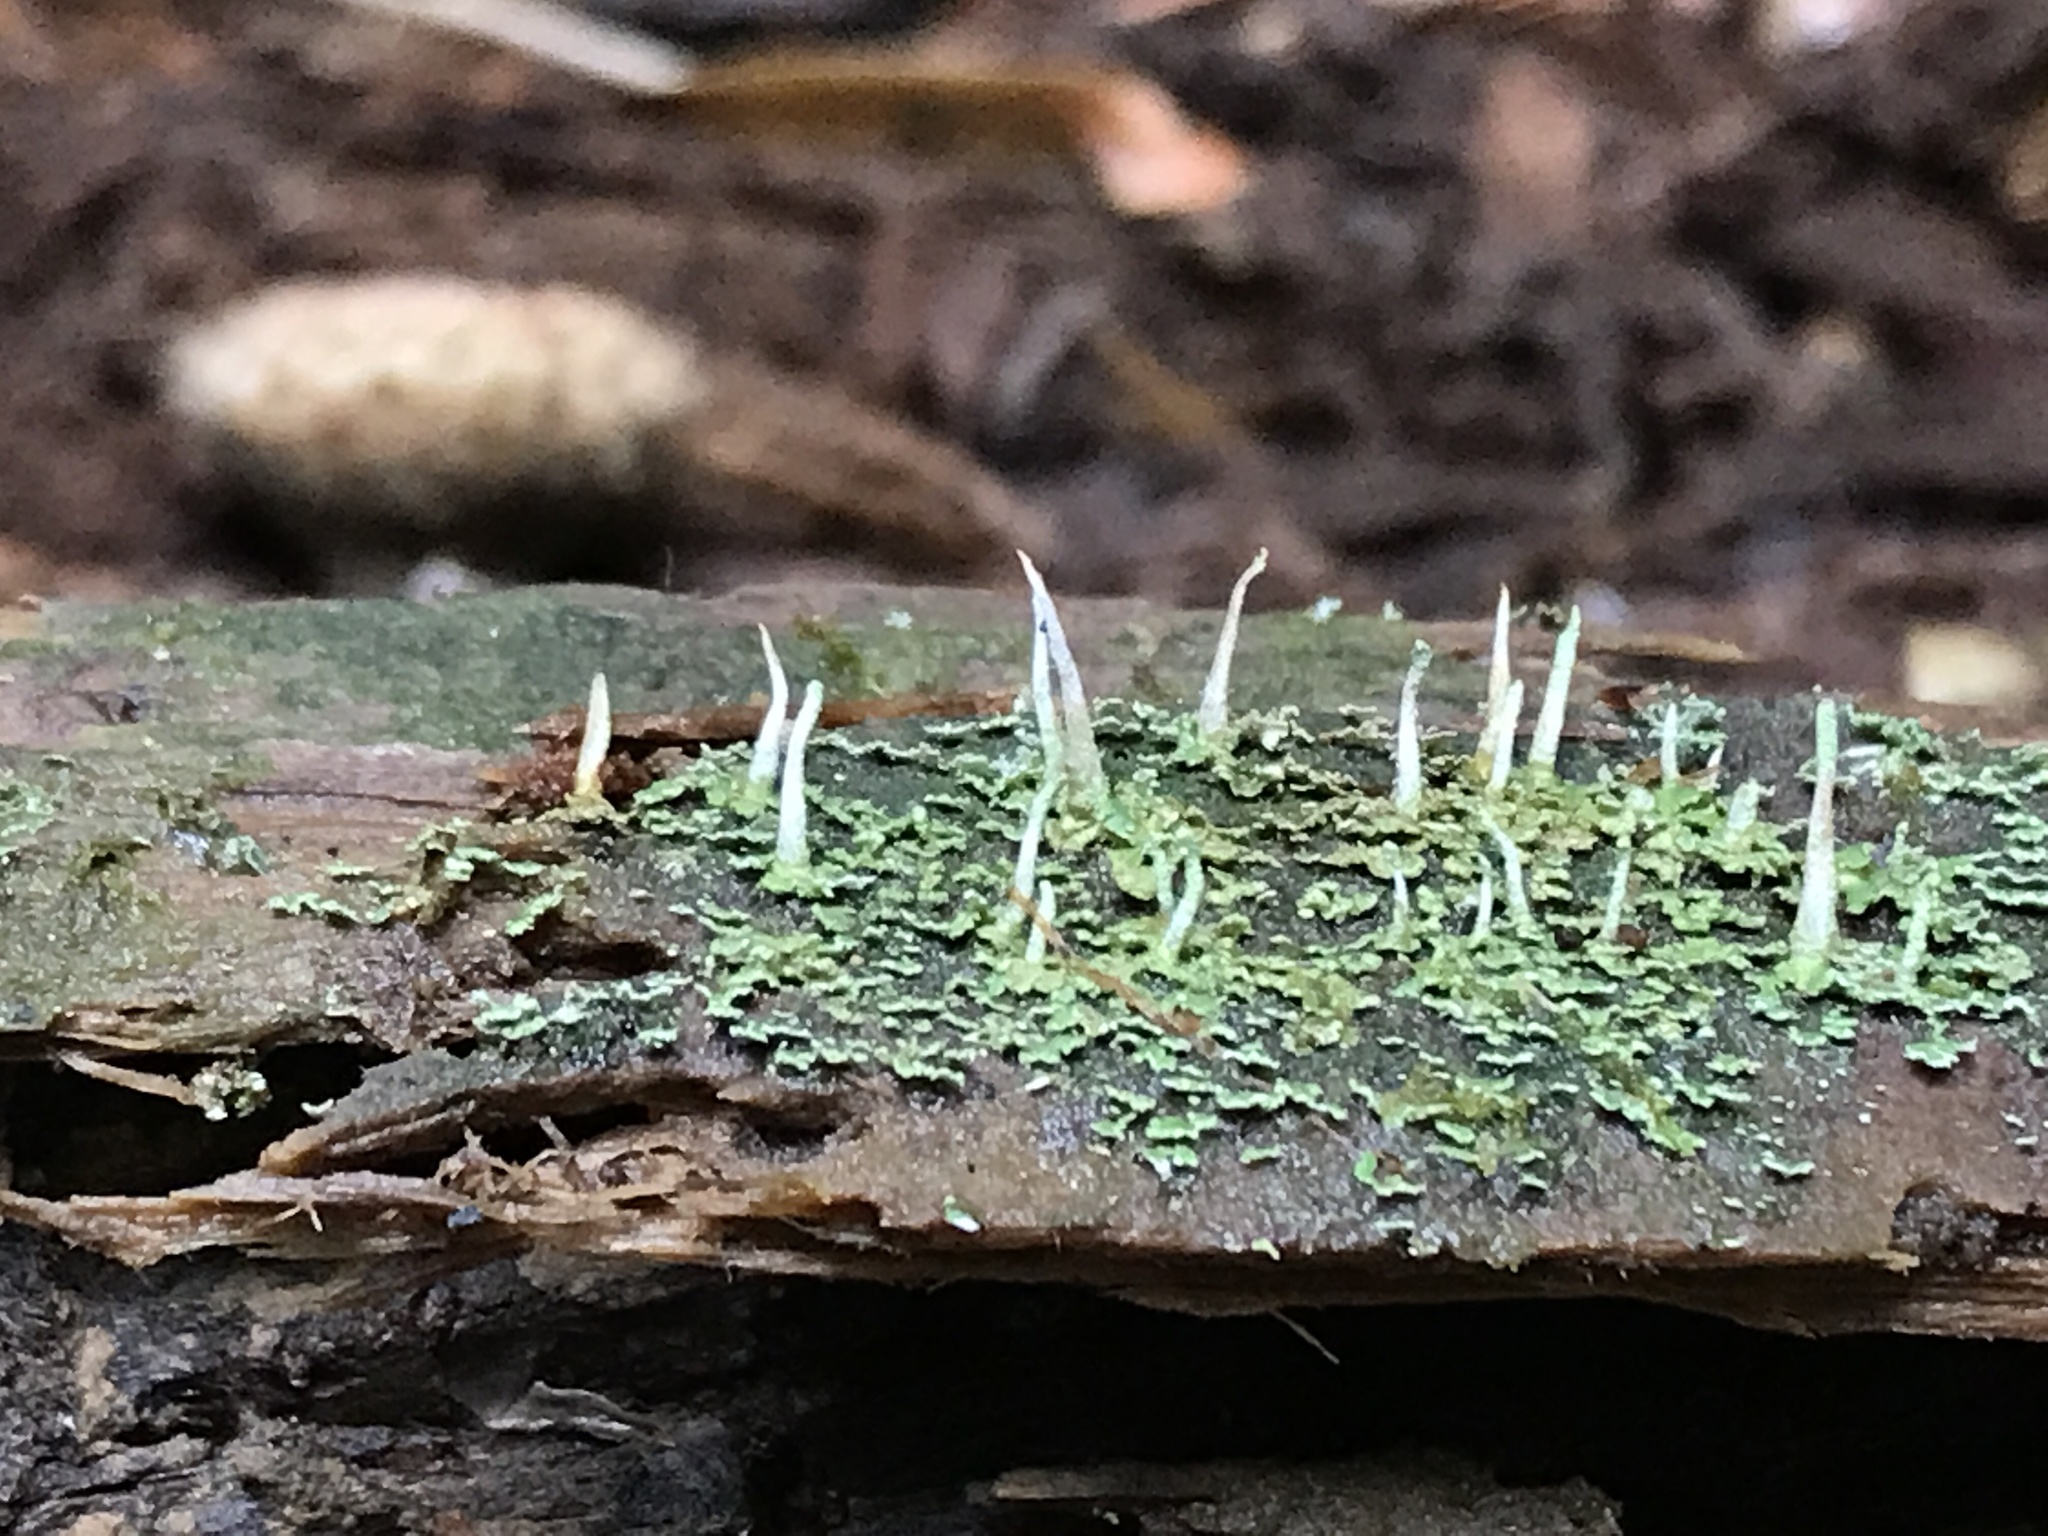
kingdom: Fungi
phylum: Ascomycota
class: Lecanoromycetes
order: Lecanorales
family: Cladoniaceae
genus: Cladonia
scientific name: Cladonia coniocraea
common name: Common powderhorn
